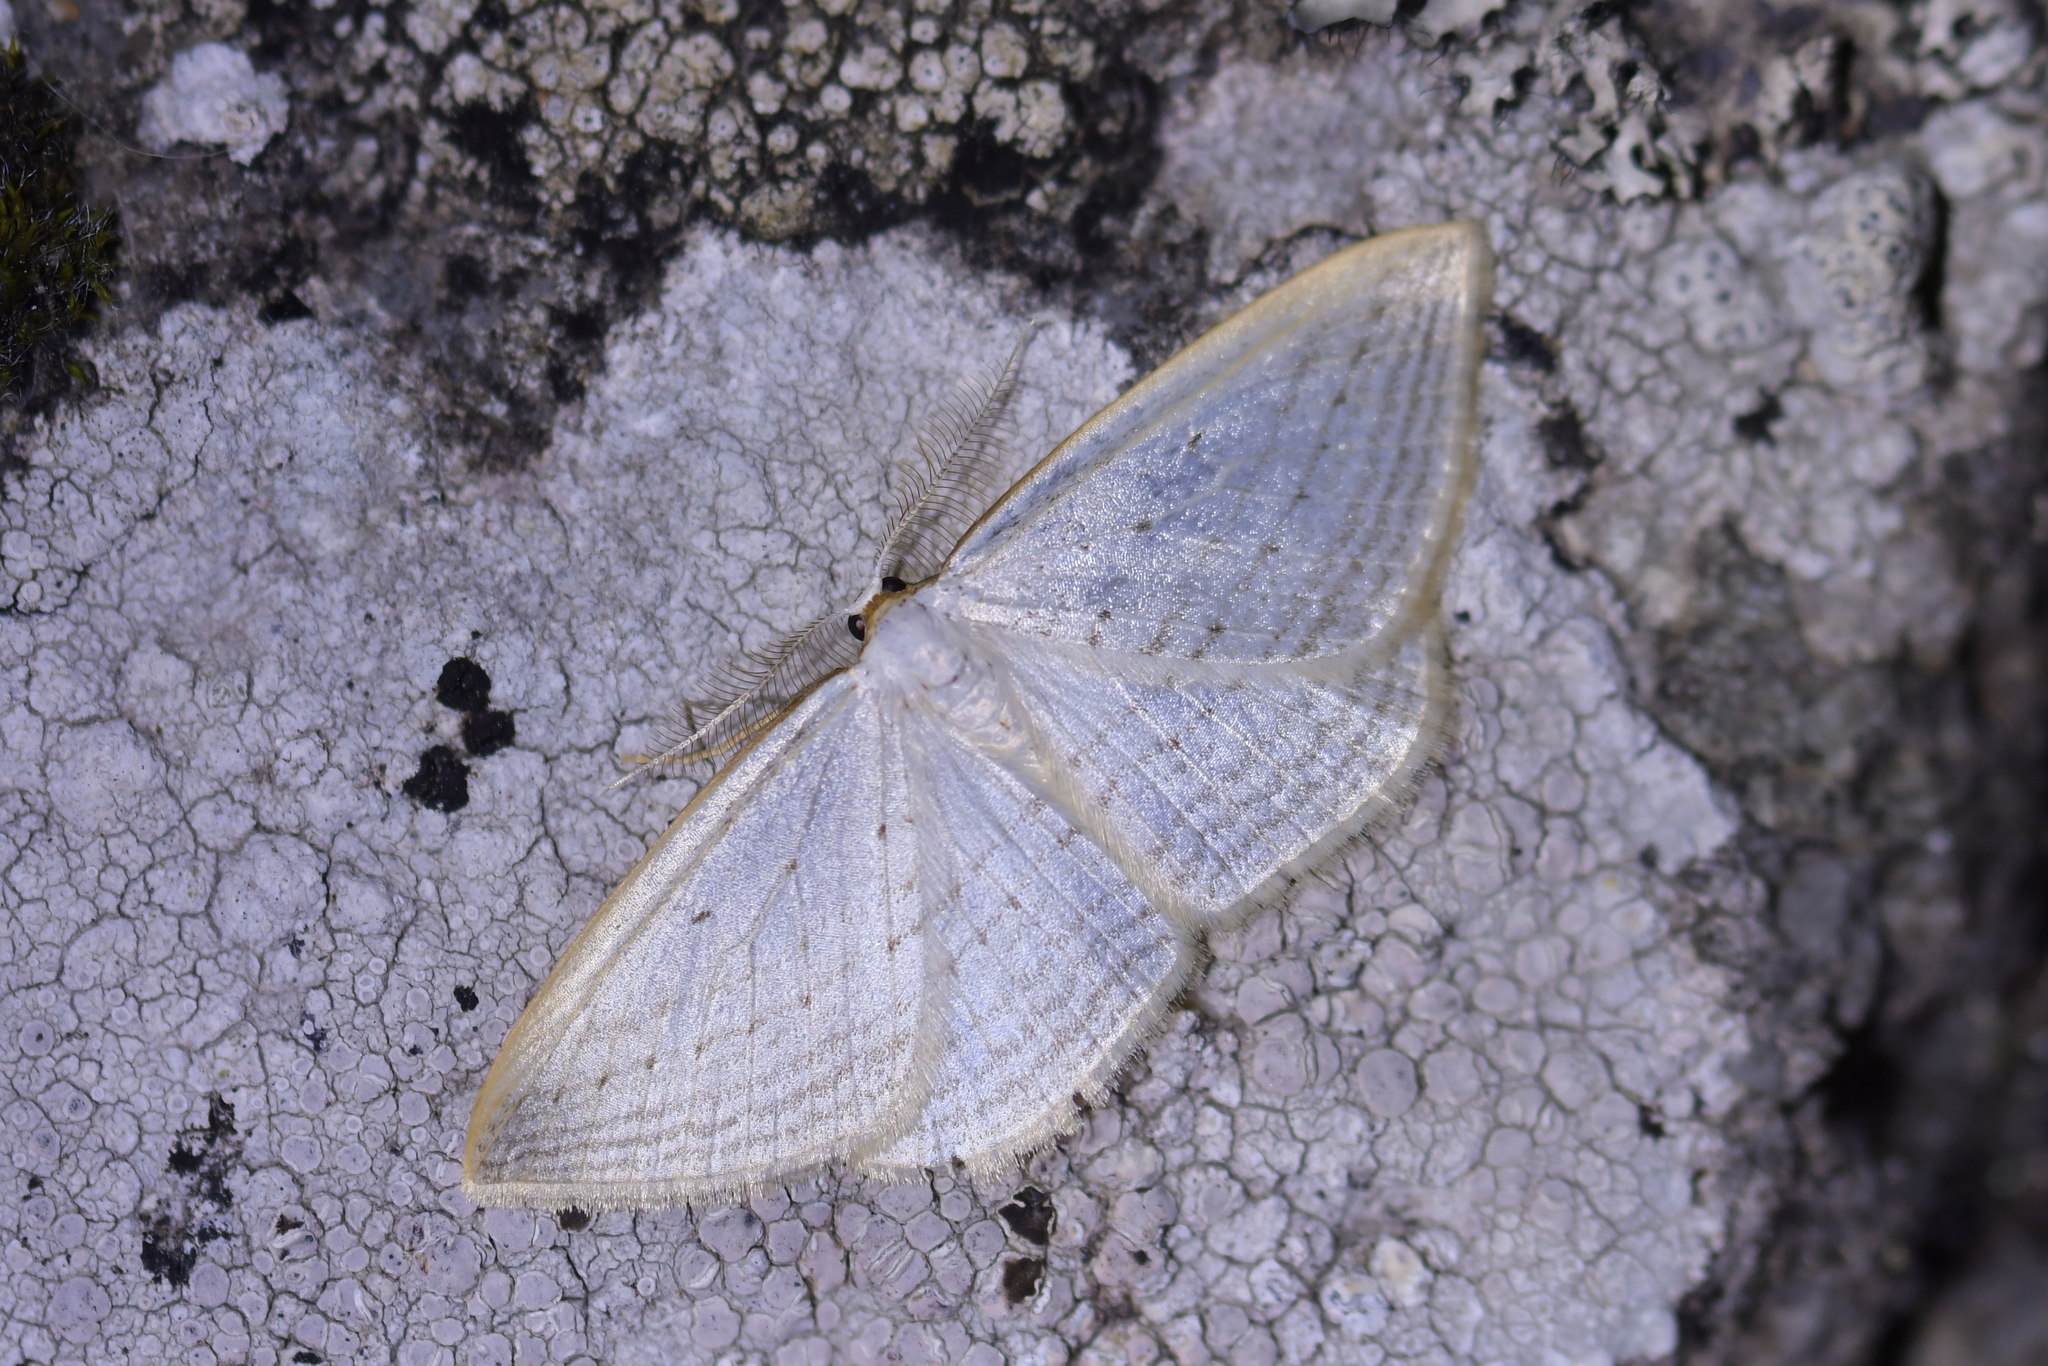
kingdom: Animalia
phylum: Arthropoda
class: Insecta
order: Lepidoptera
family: Geometridae
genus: Orthoclydon
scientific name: Orthoclydon praefectata
